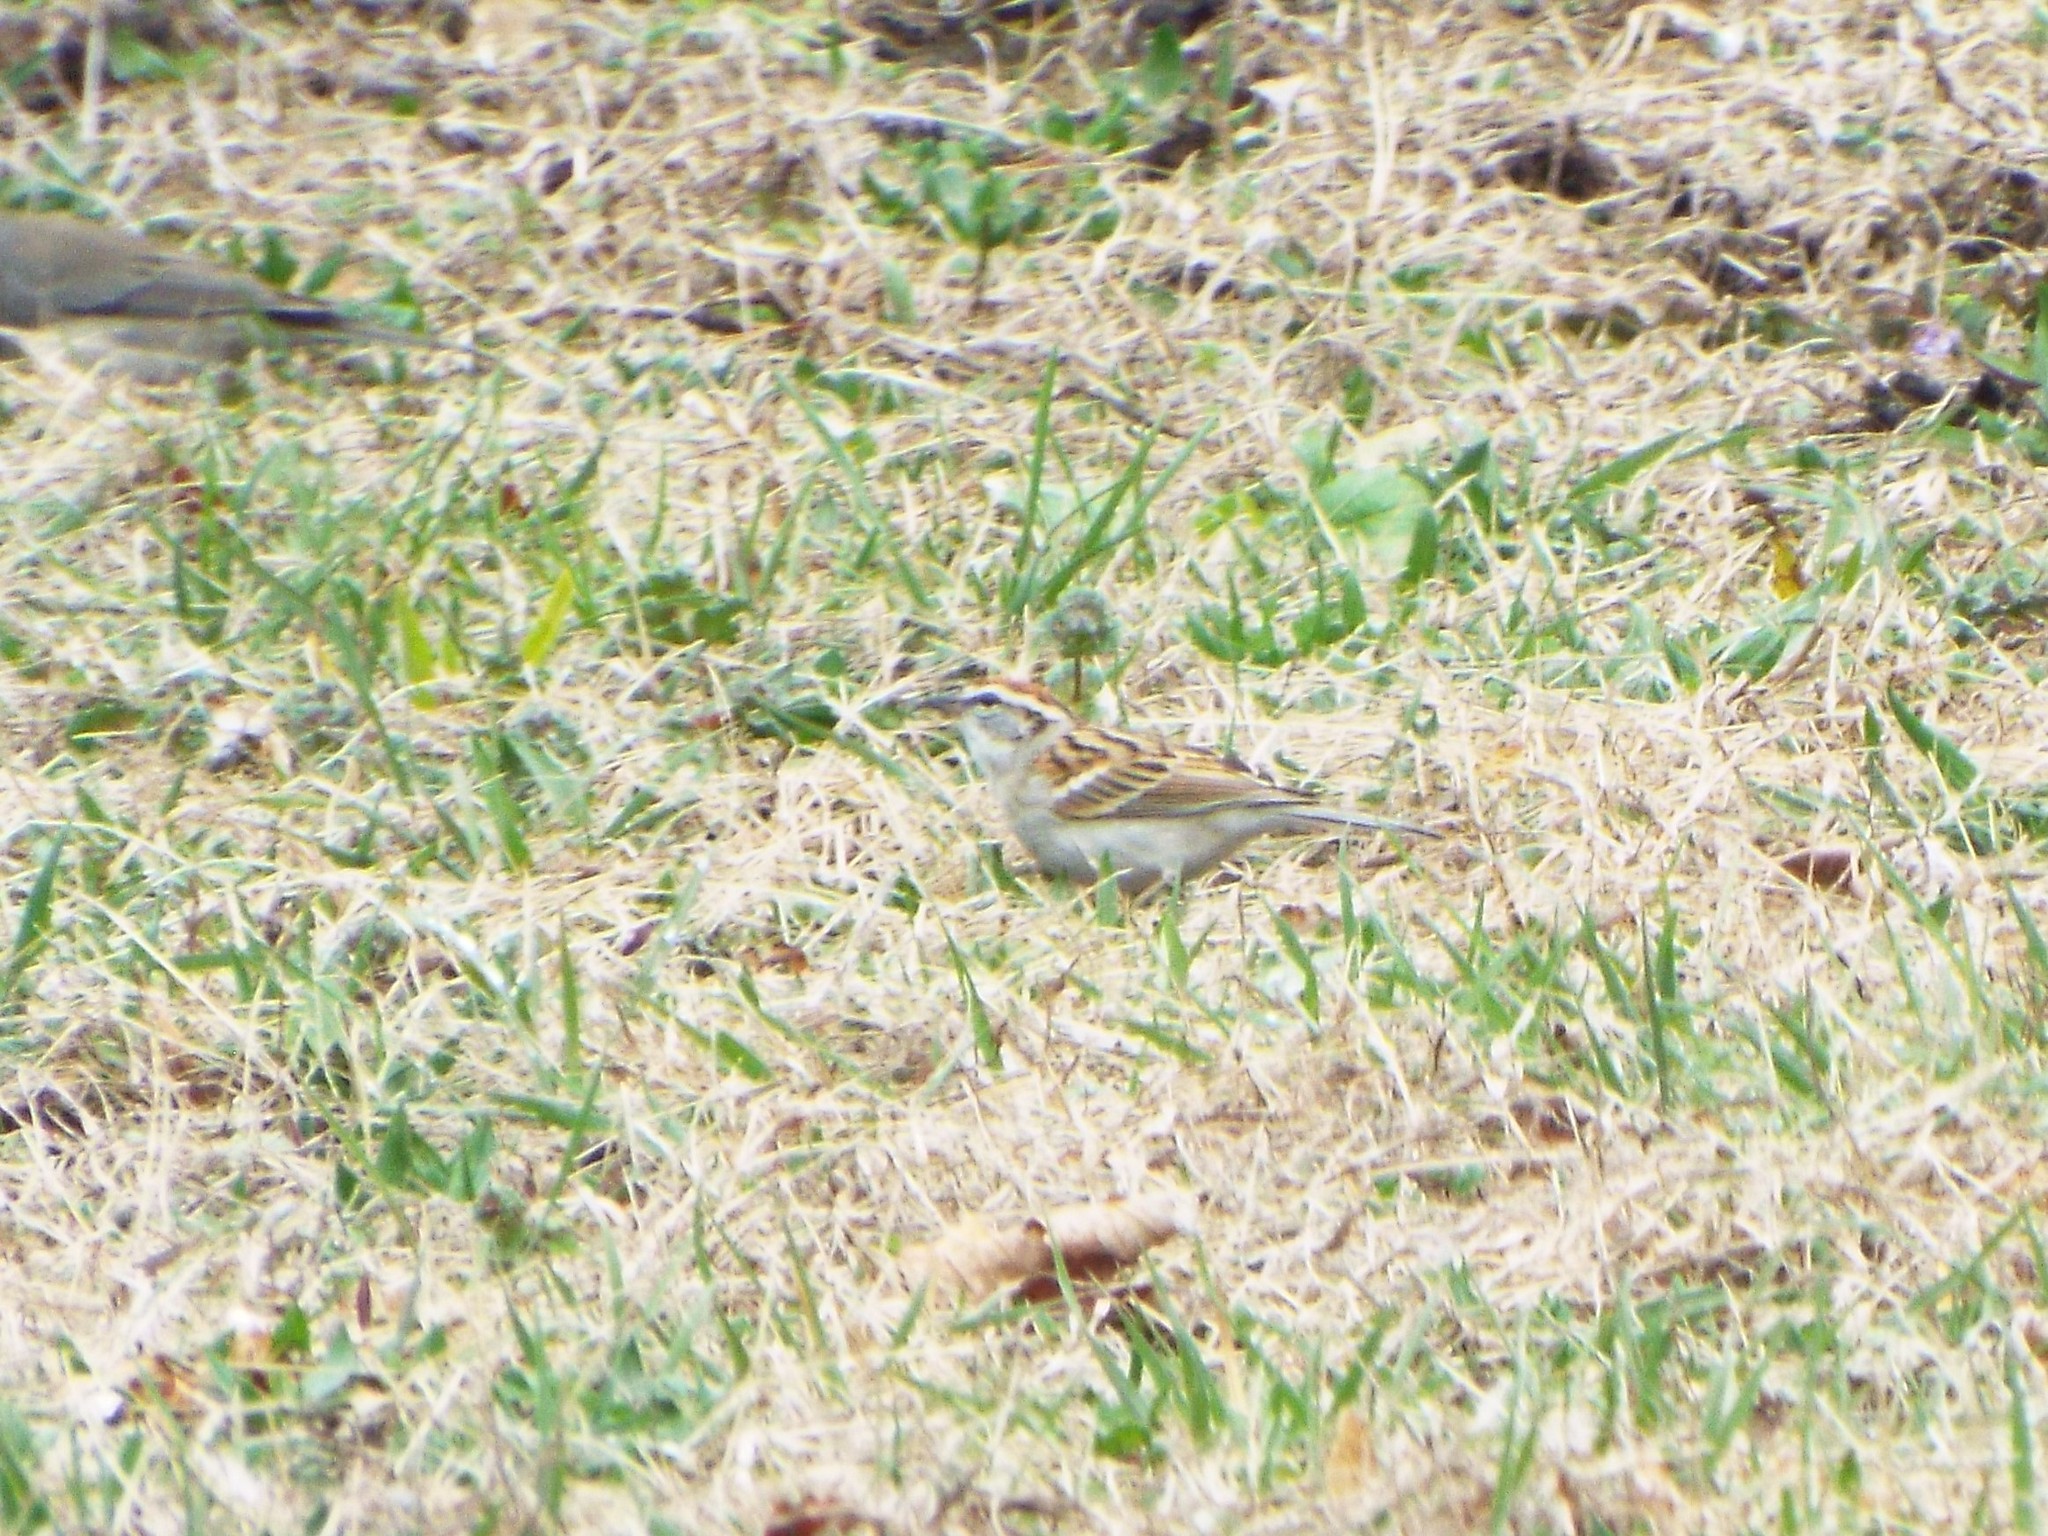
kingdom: Animalia
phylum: Chordata
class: Aves
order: Passeriformes
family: Passerellidae
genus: Spizella
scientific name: Spizella passerina
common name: Chipping sparrow
